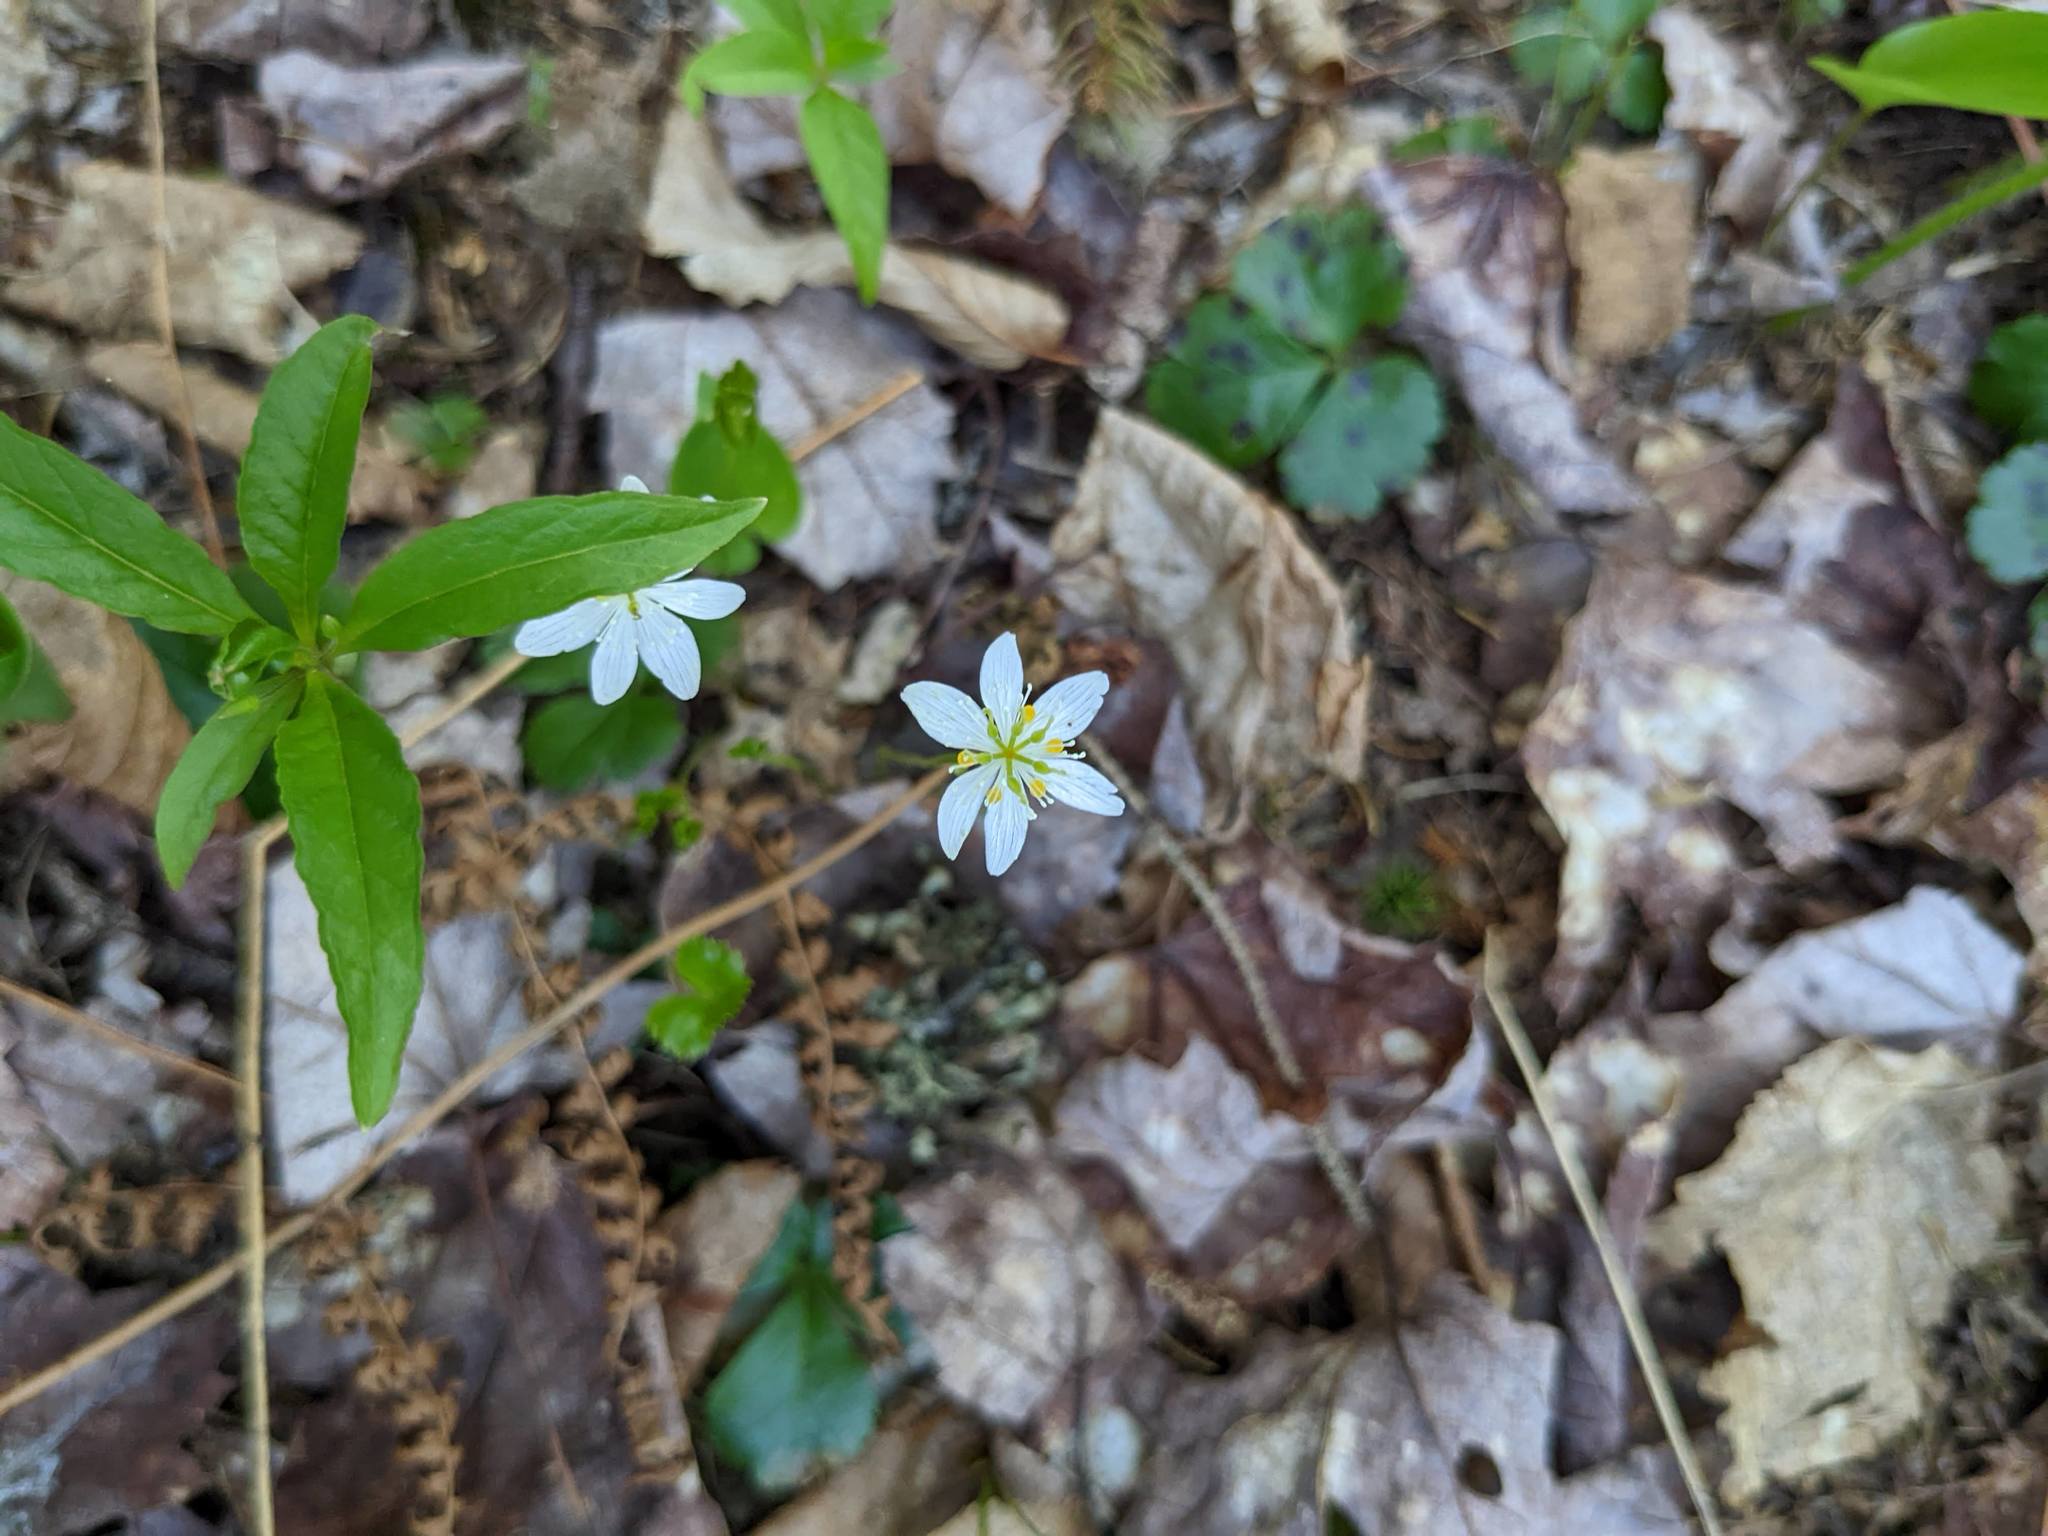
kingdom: Plantae
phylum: Tracheophyta
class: Magnoliopsida
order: Ericales
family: Primulaceae
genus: Lysimachia
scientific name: Lysimachia borealis
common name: American starflower
